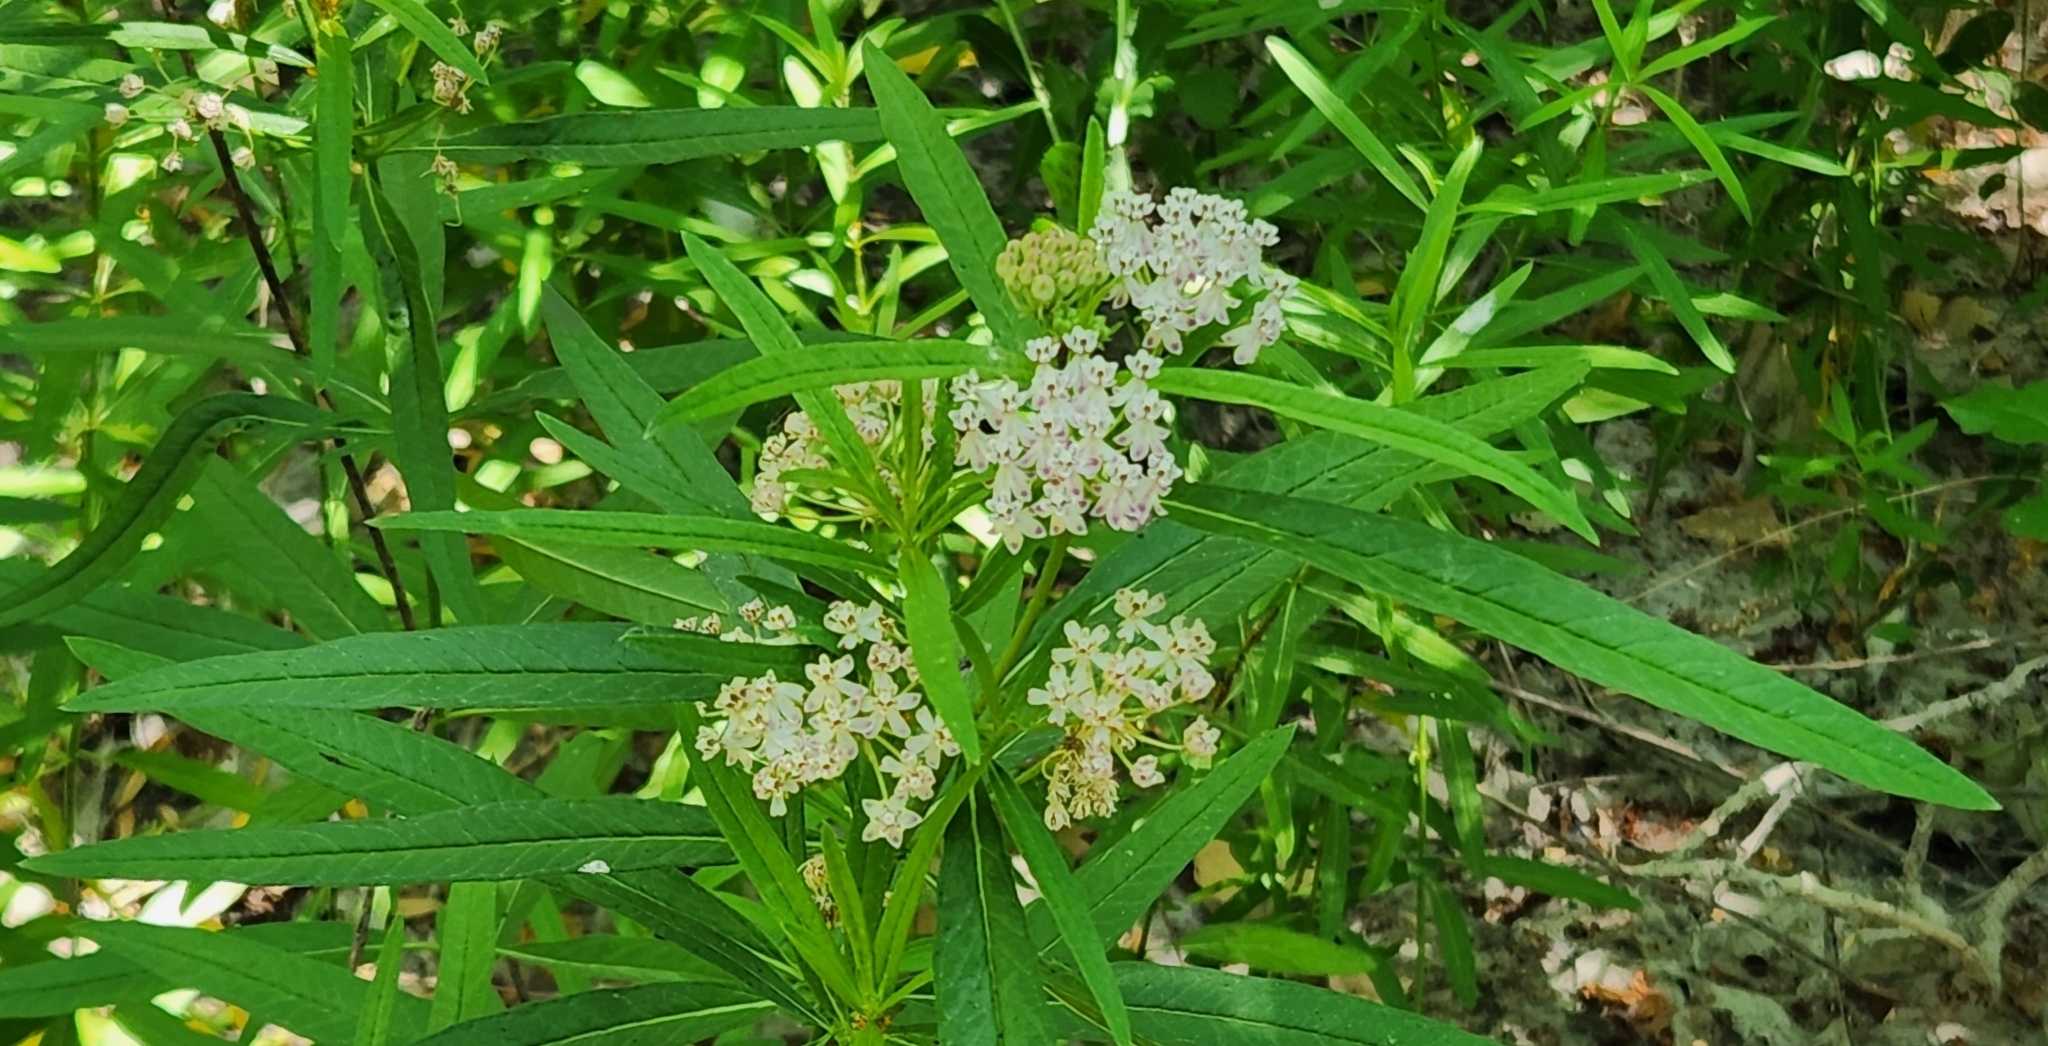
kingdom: Plantae
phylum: Tracheophyta
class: Magnoliopsida
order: Gentianales
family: Apocynaceae
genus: Asclepias
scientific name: Asclepias fascicularis
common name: Mexican milkweed
